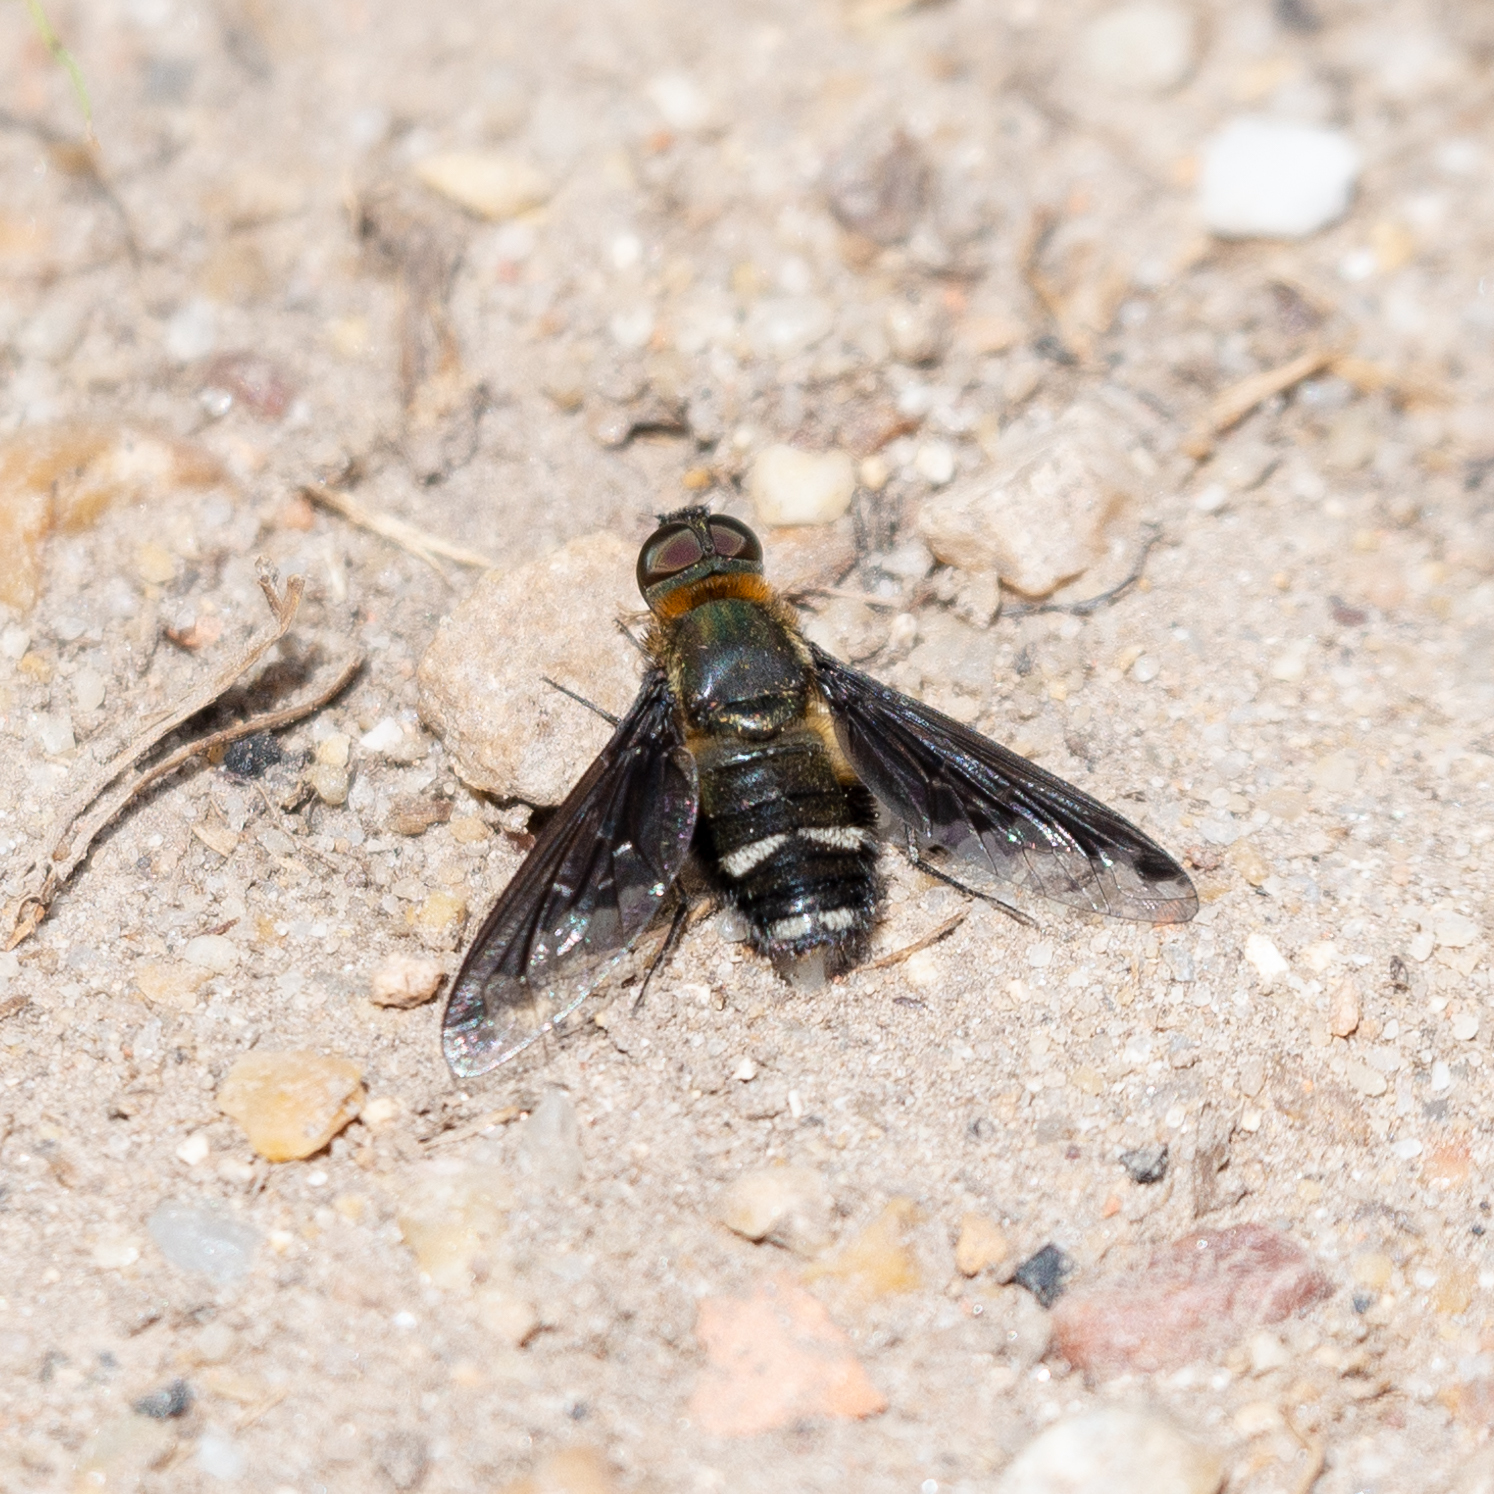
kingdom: Animalia
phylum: Arthropoda
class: Insecta
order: Diptera
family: Bombyliidae
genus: Hemipenthes
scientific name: Hemipenthes velutina
